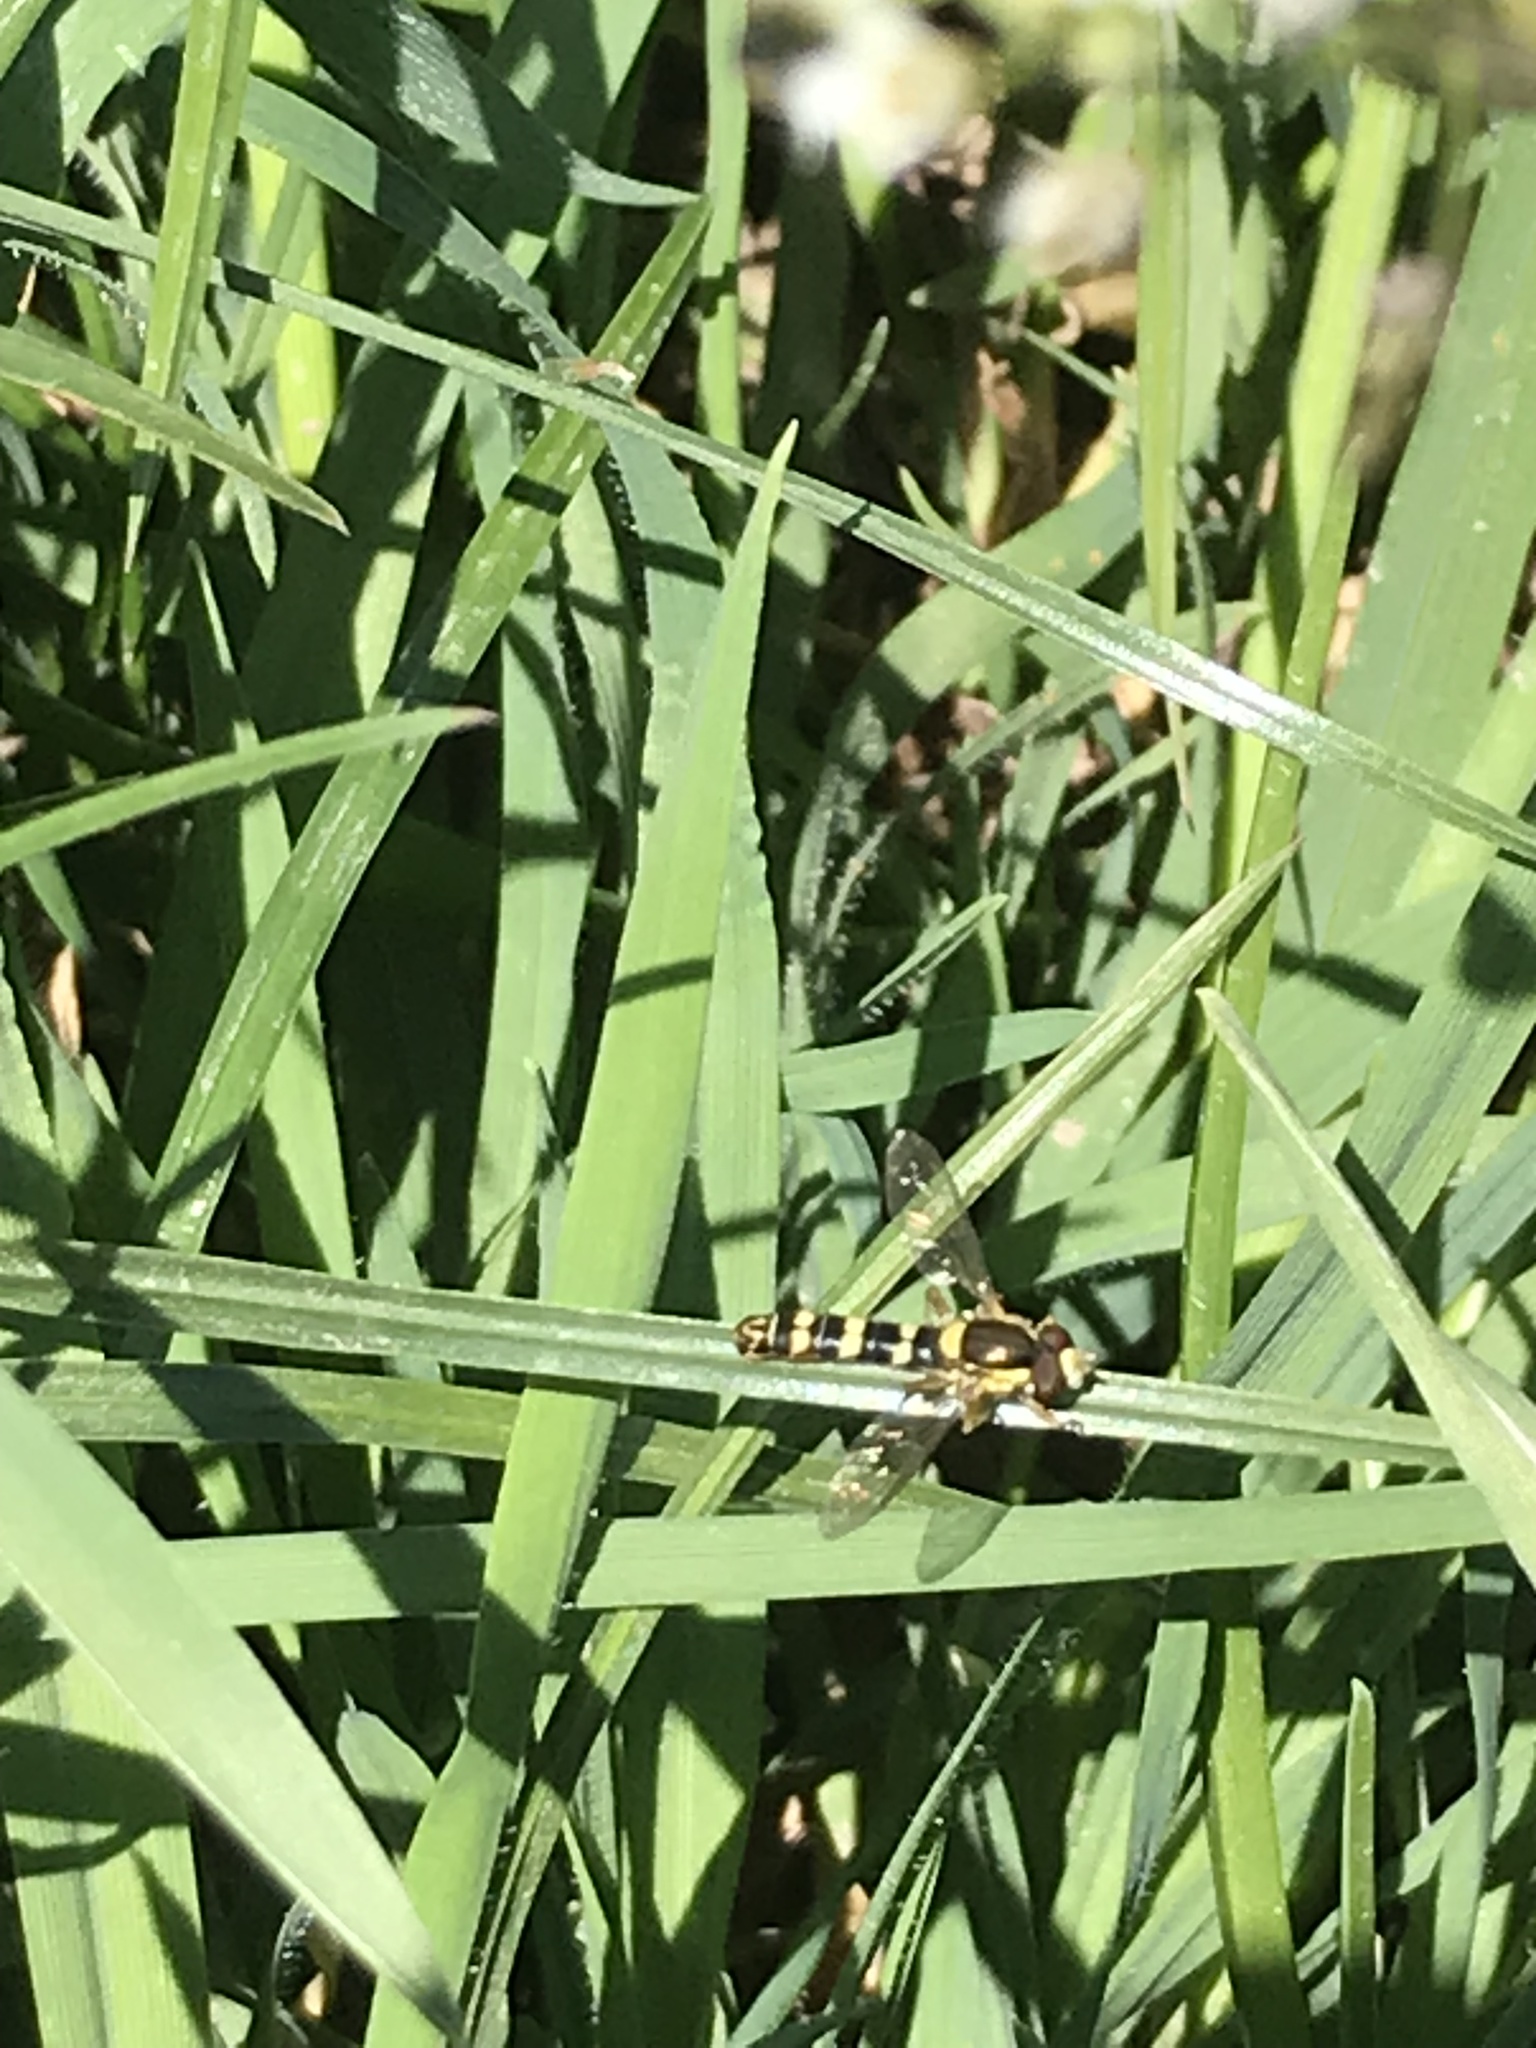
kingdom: Animalia
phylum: Arthropoda
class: Insecta
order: Diptera
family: Syrphidae
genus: Sphaerophoria
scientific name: Sphaerophoria scripta
